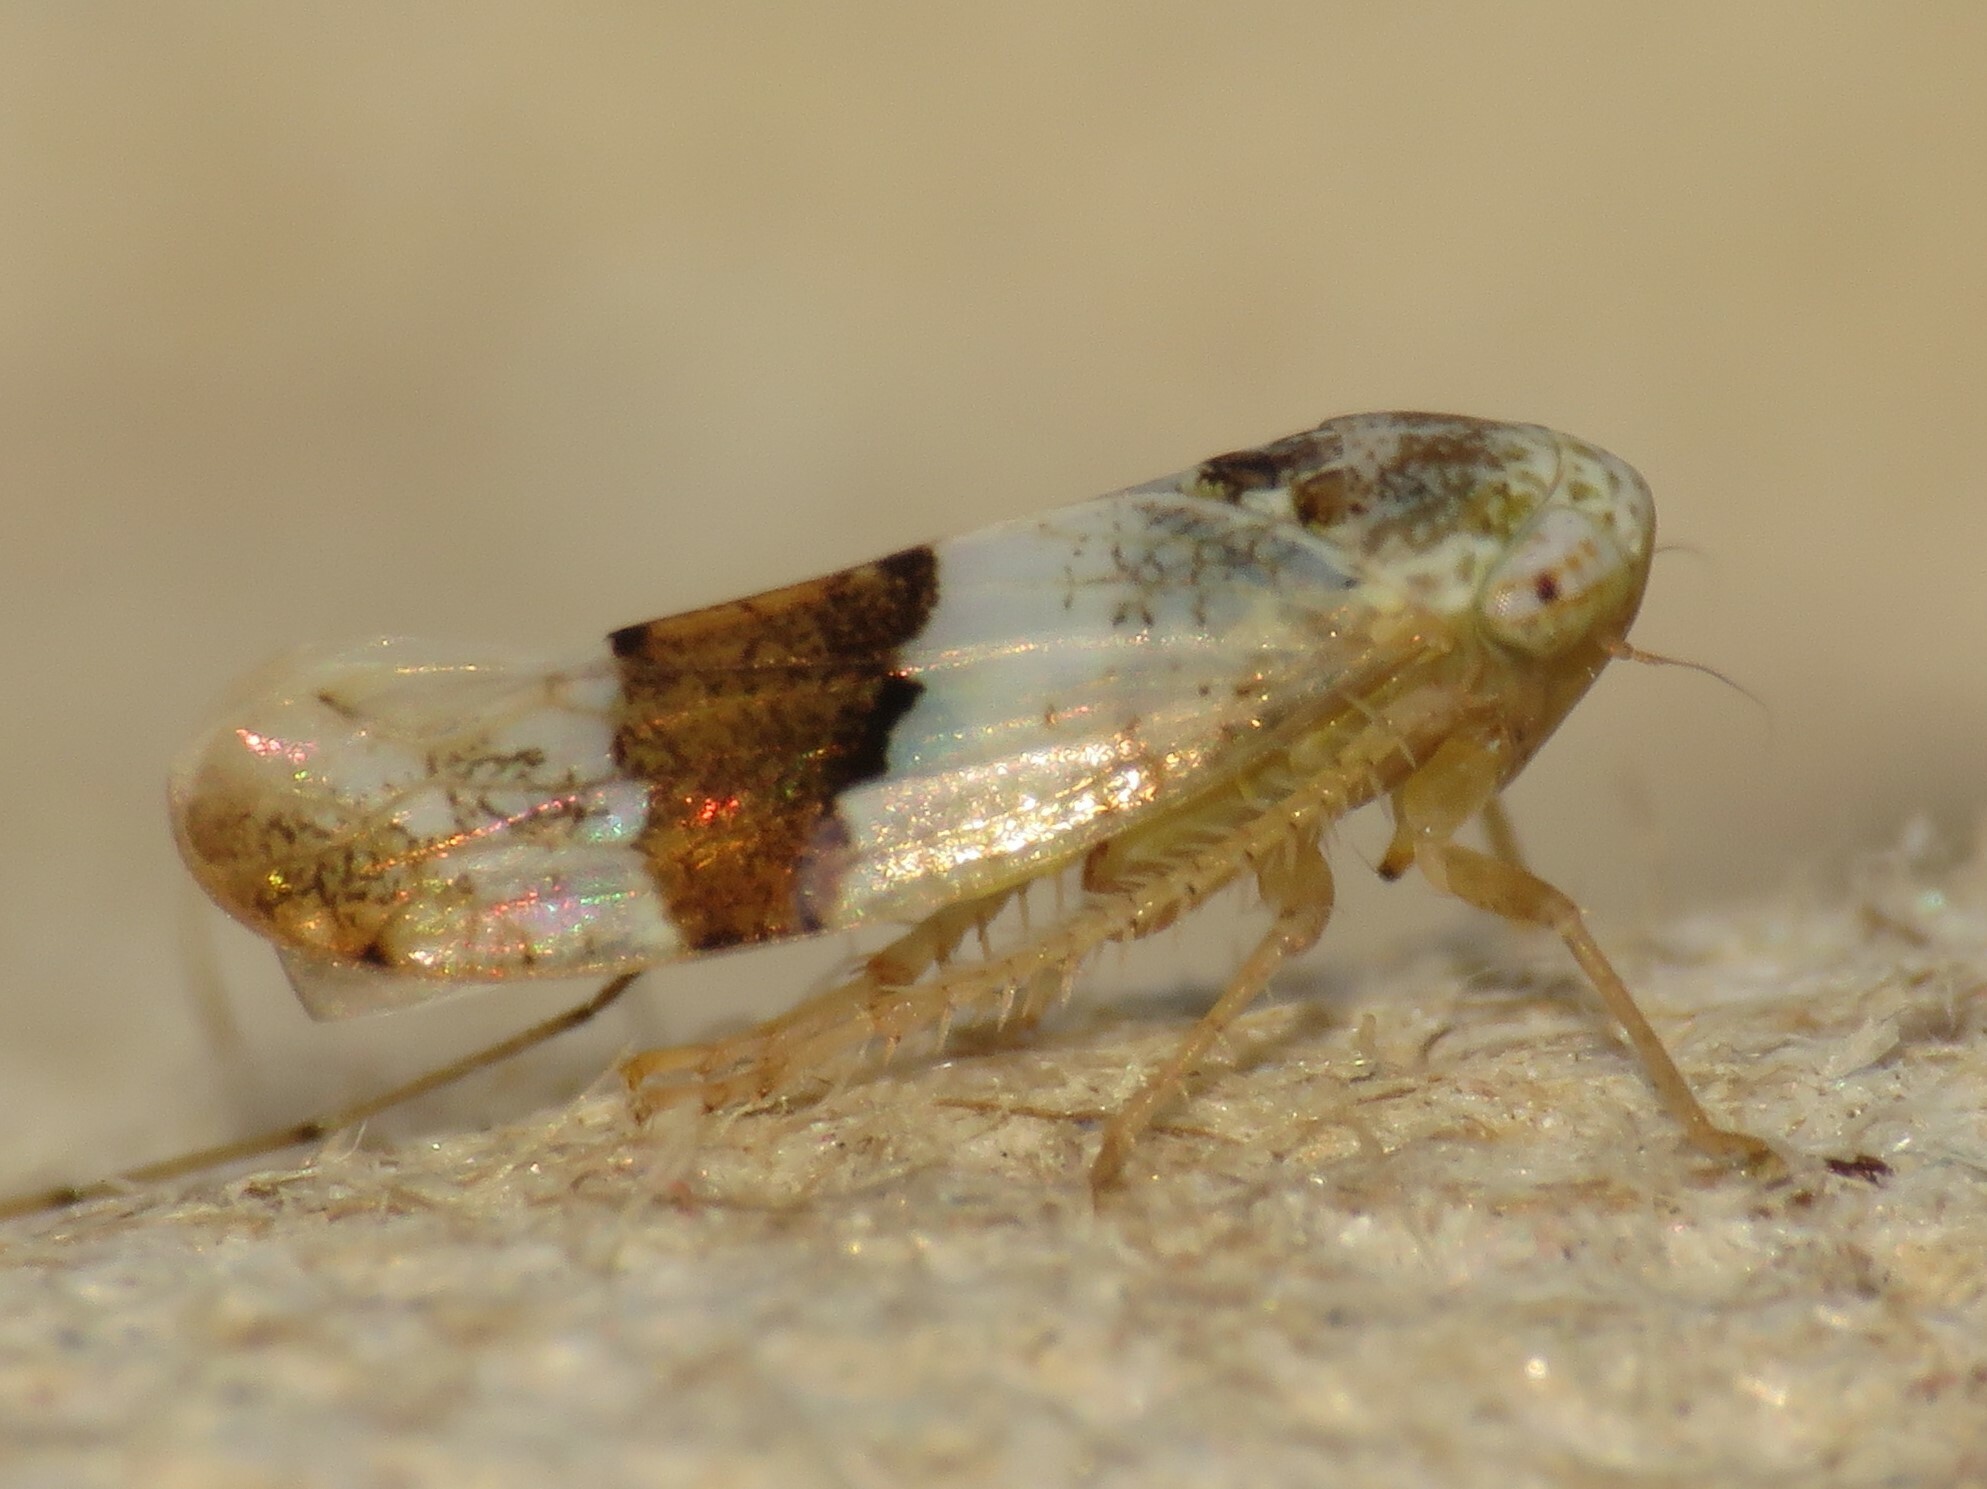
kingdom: Animalia
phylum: Arthropoda
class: Insecta
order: Hemiptera
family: Cicadellidae
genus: Norvellina
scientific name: Norvellina seminuda
